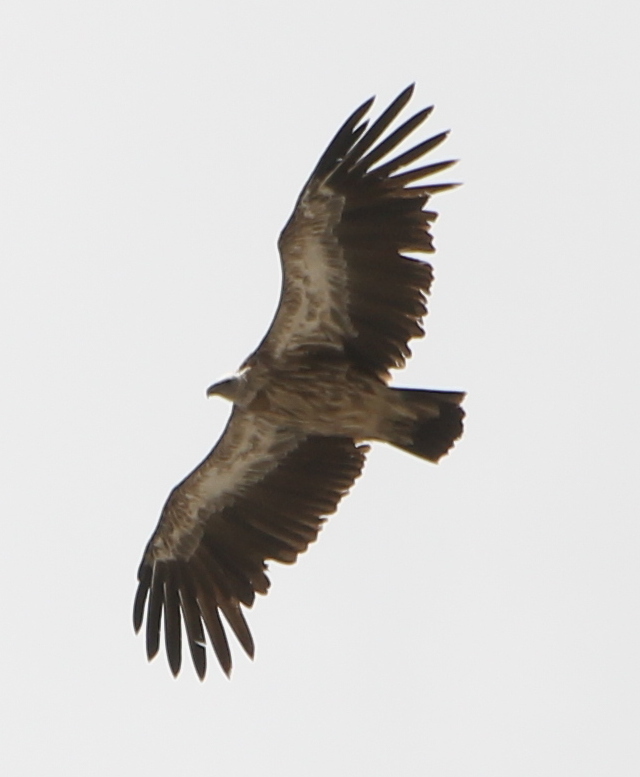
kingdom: Animalia
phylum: Chordata
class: Aves
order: Accipitriformes
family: Accipitridae
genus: Gyps
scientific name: Gyps himalayensis
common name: Himalayan griffon
